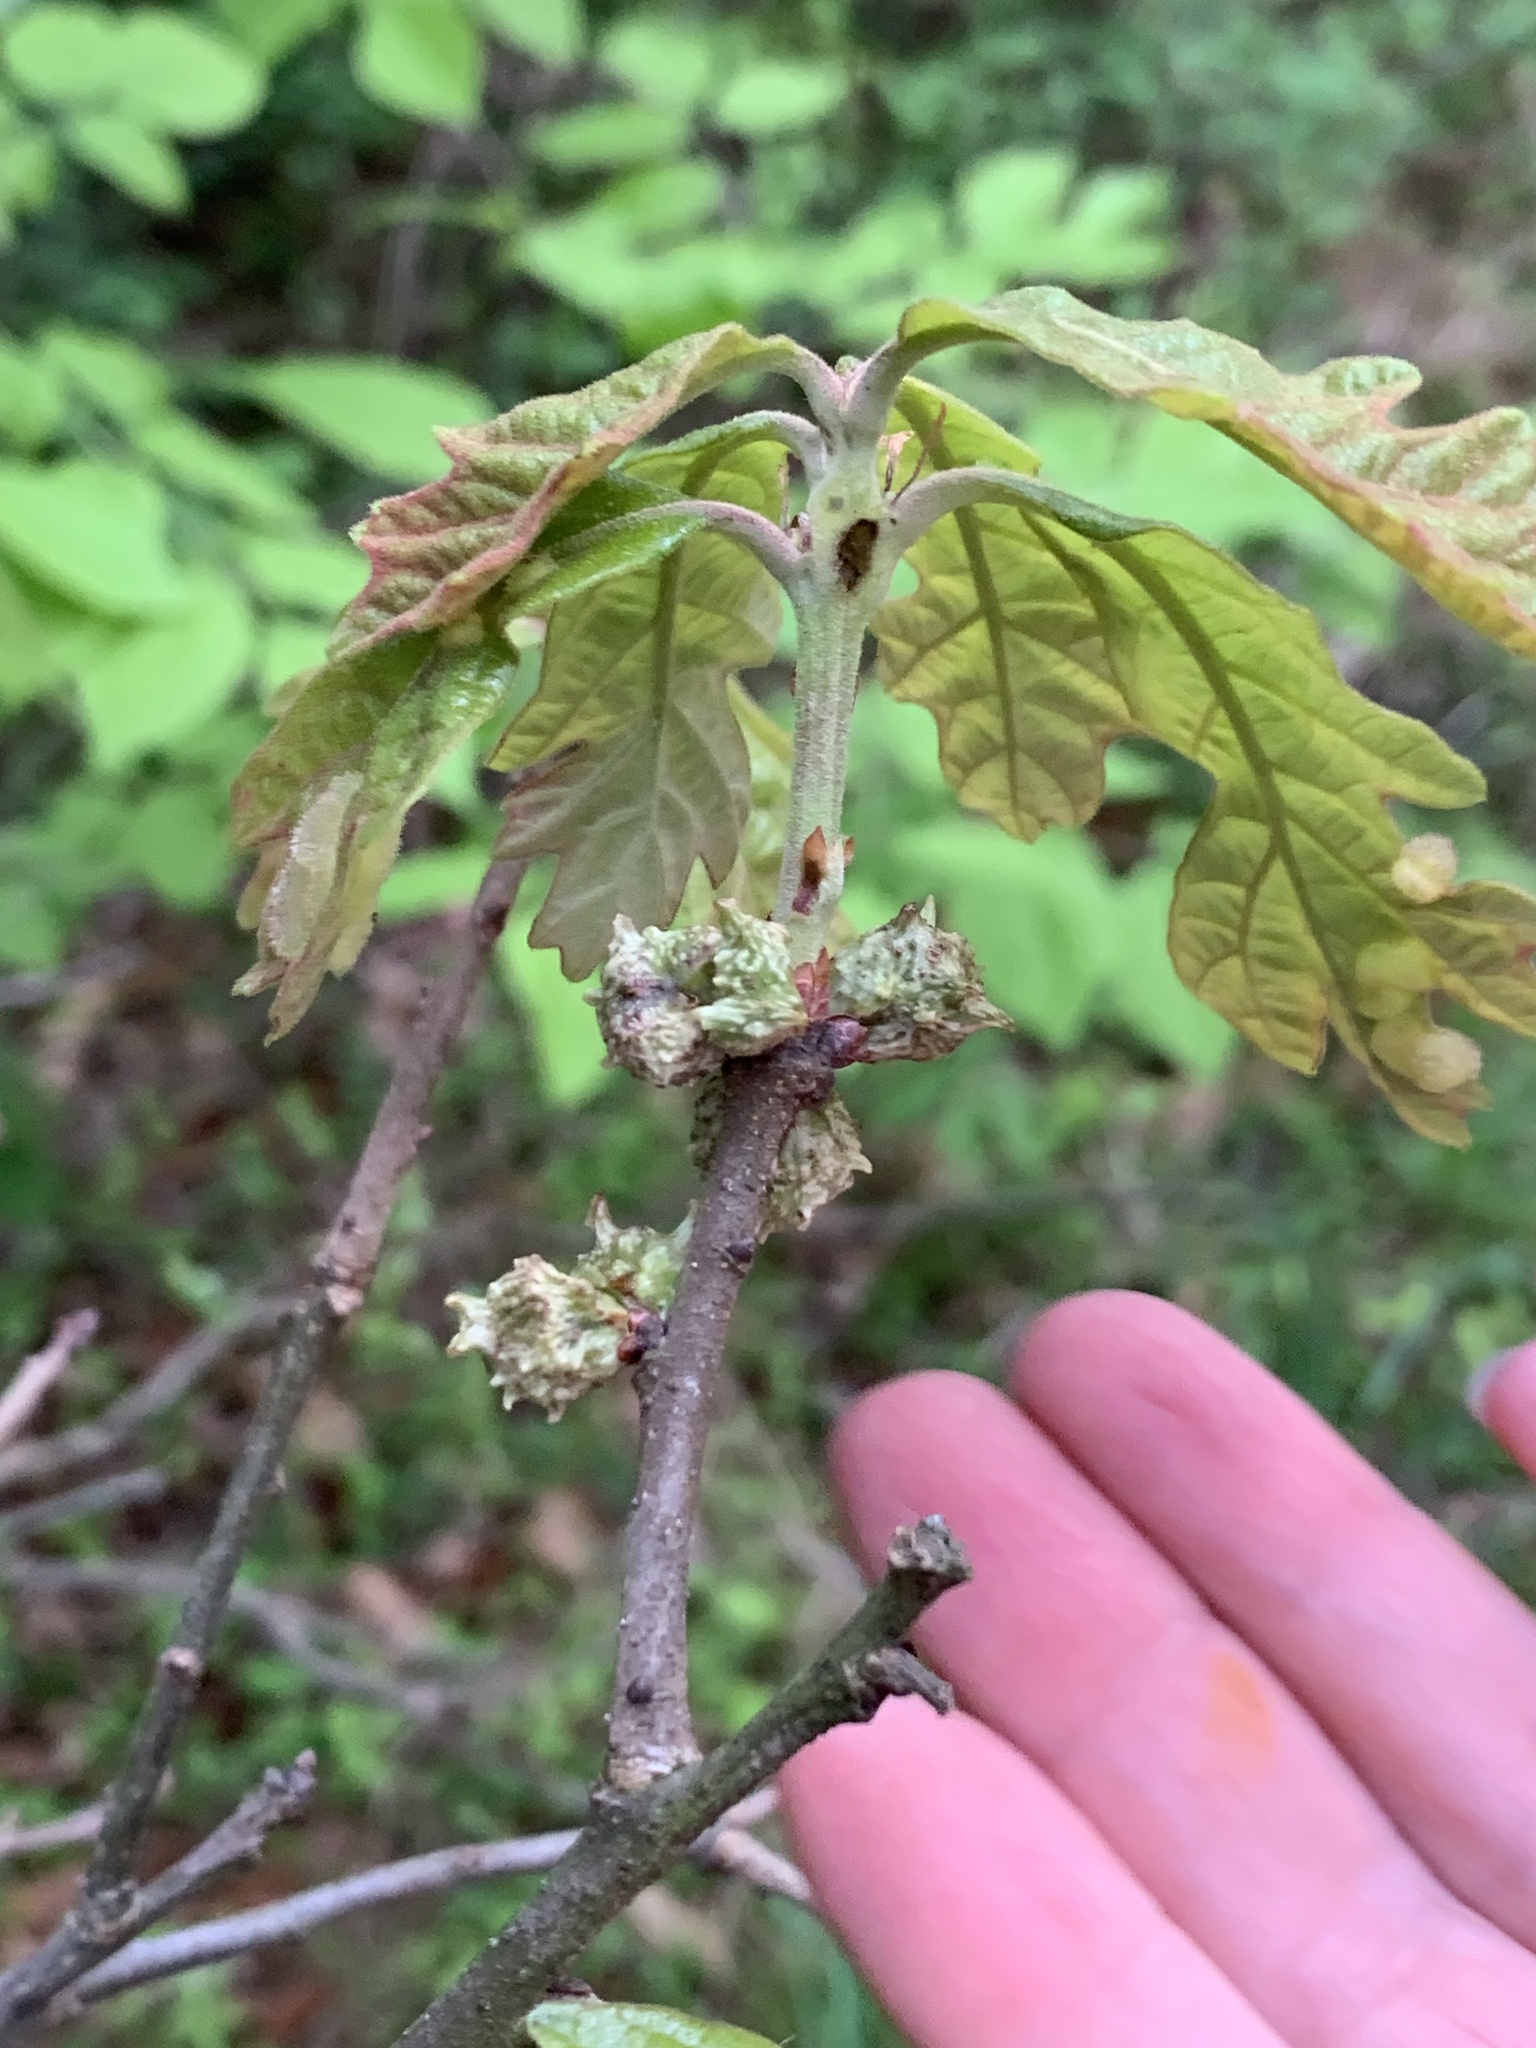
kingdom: Animalia
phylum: Arthropoda
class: Insecta
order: Hymenoptera
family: Cynipidae
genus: Andricus
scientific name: Andricus
